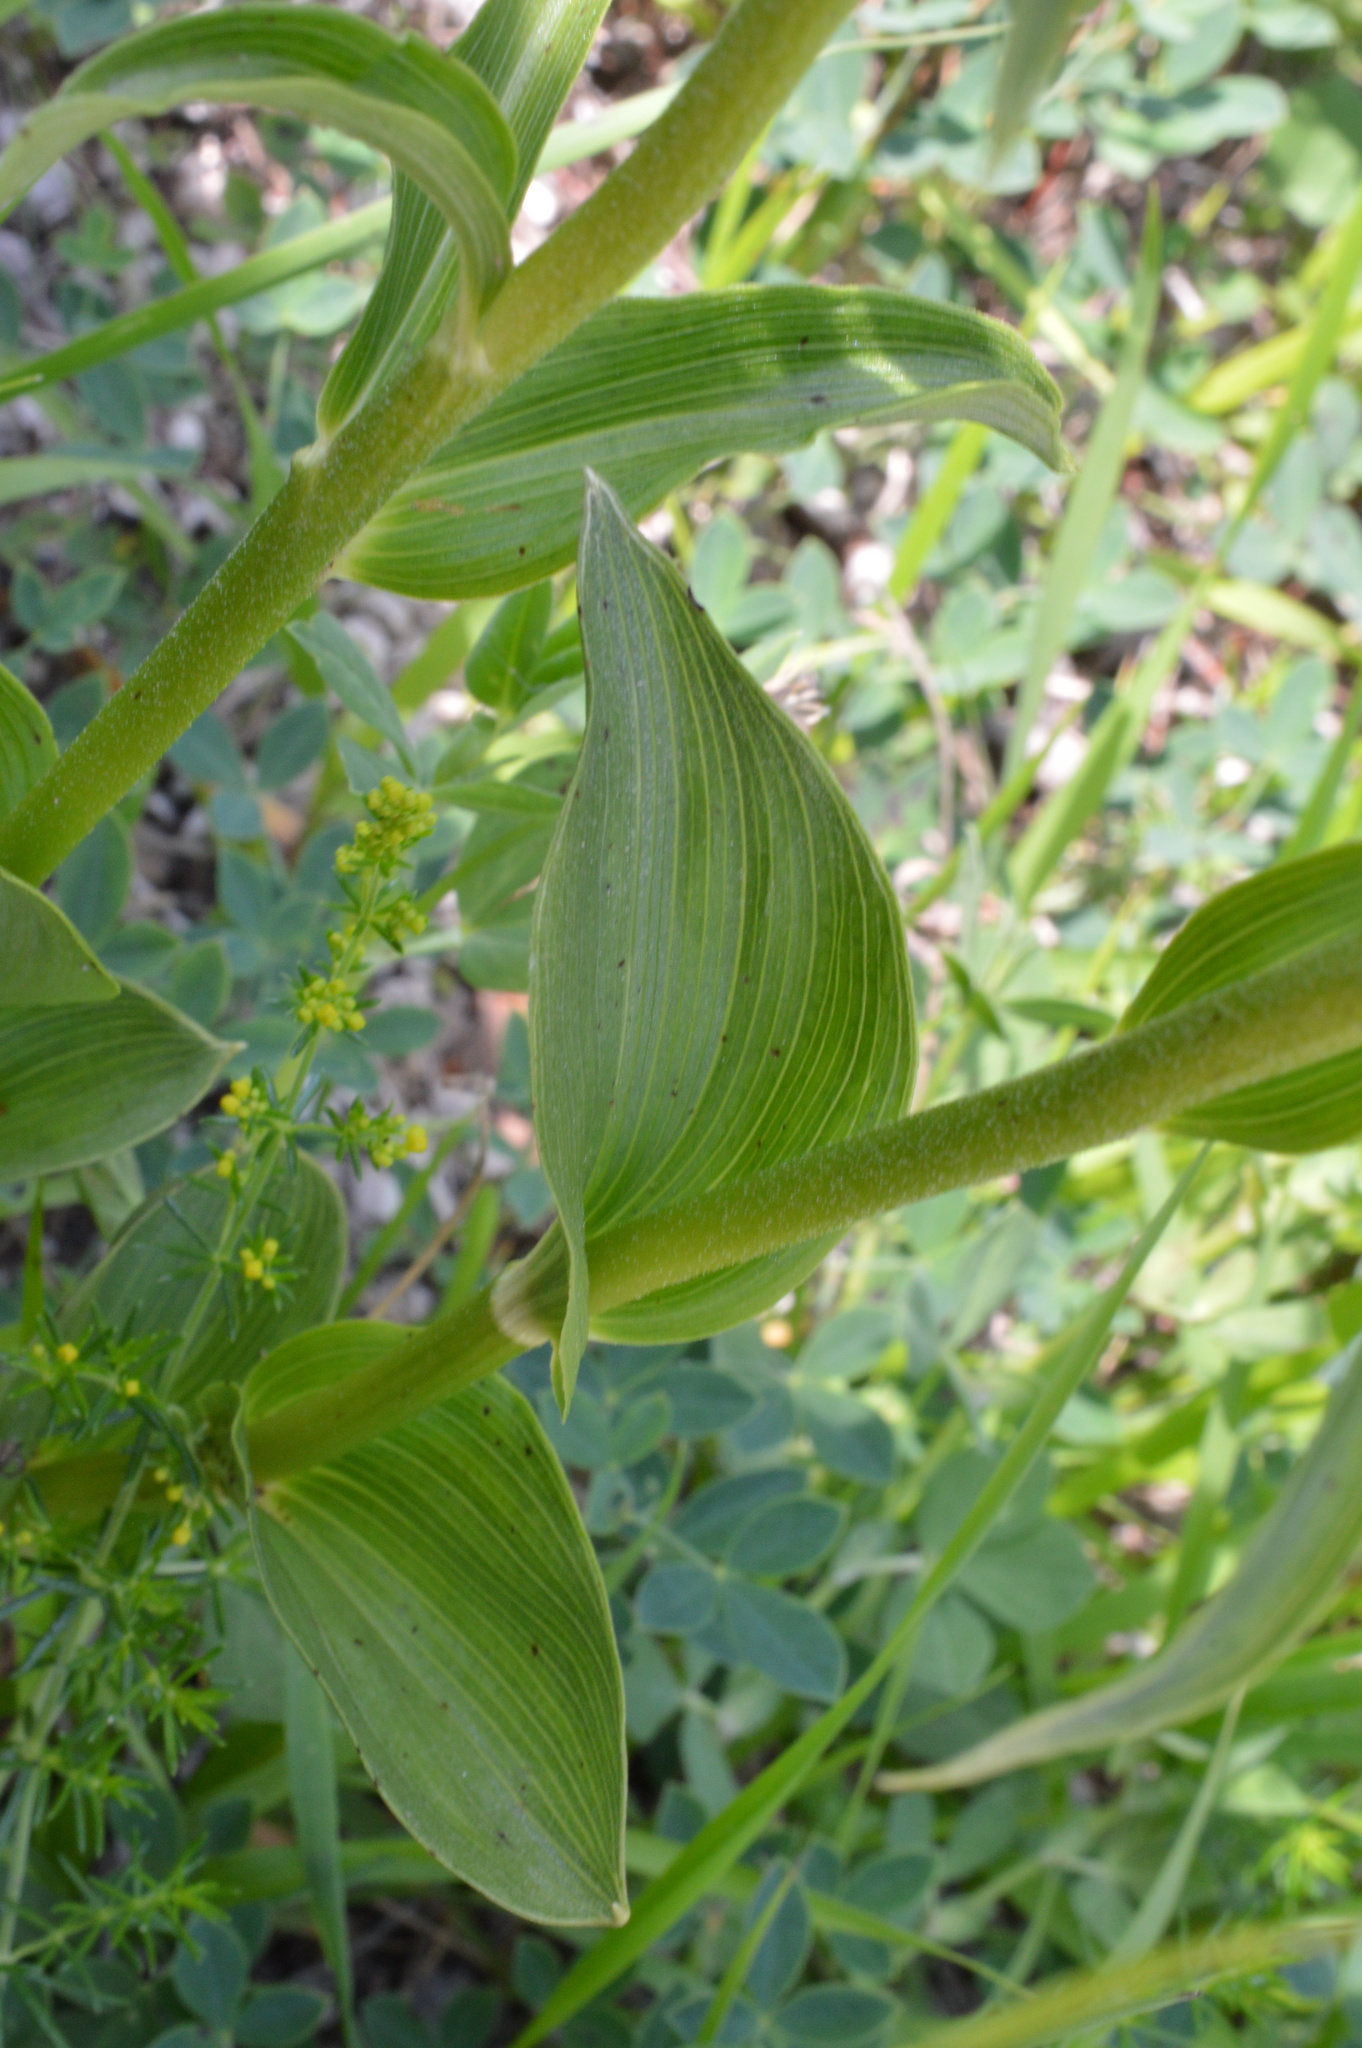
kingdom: Plantae
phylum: Tracheophyta
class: Liliopsida
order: Asparagales
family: Orchidaceae
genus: Epipactis
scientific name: Epipactis helleborine
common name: Broad-leaved helleborine
